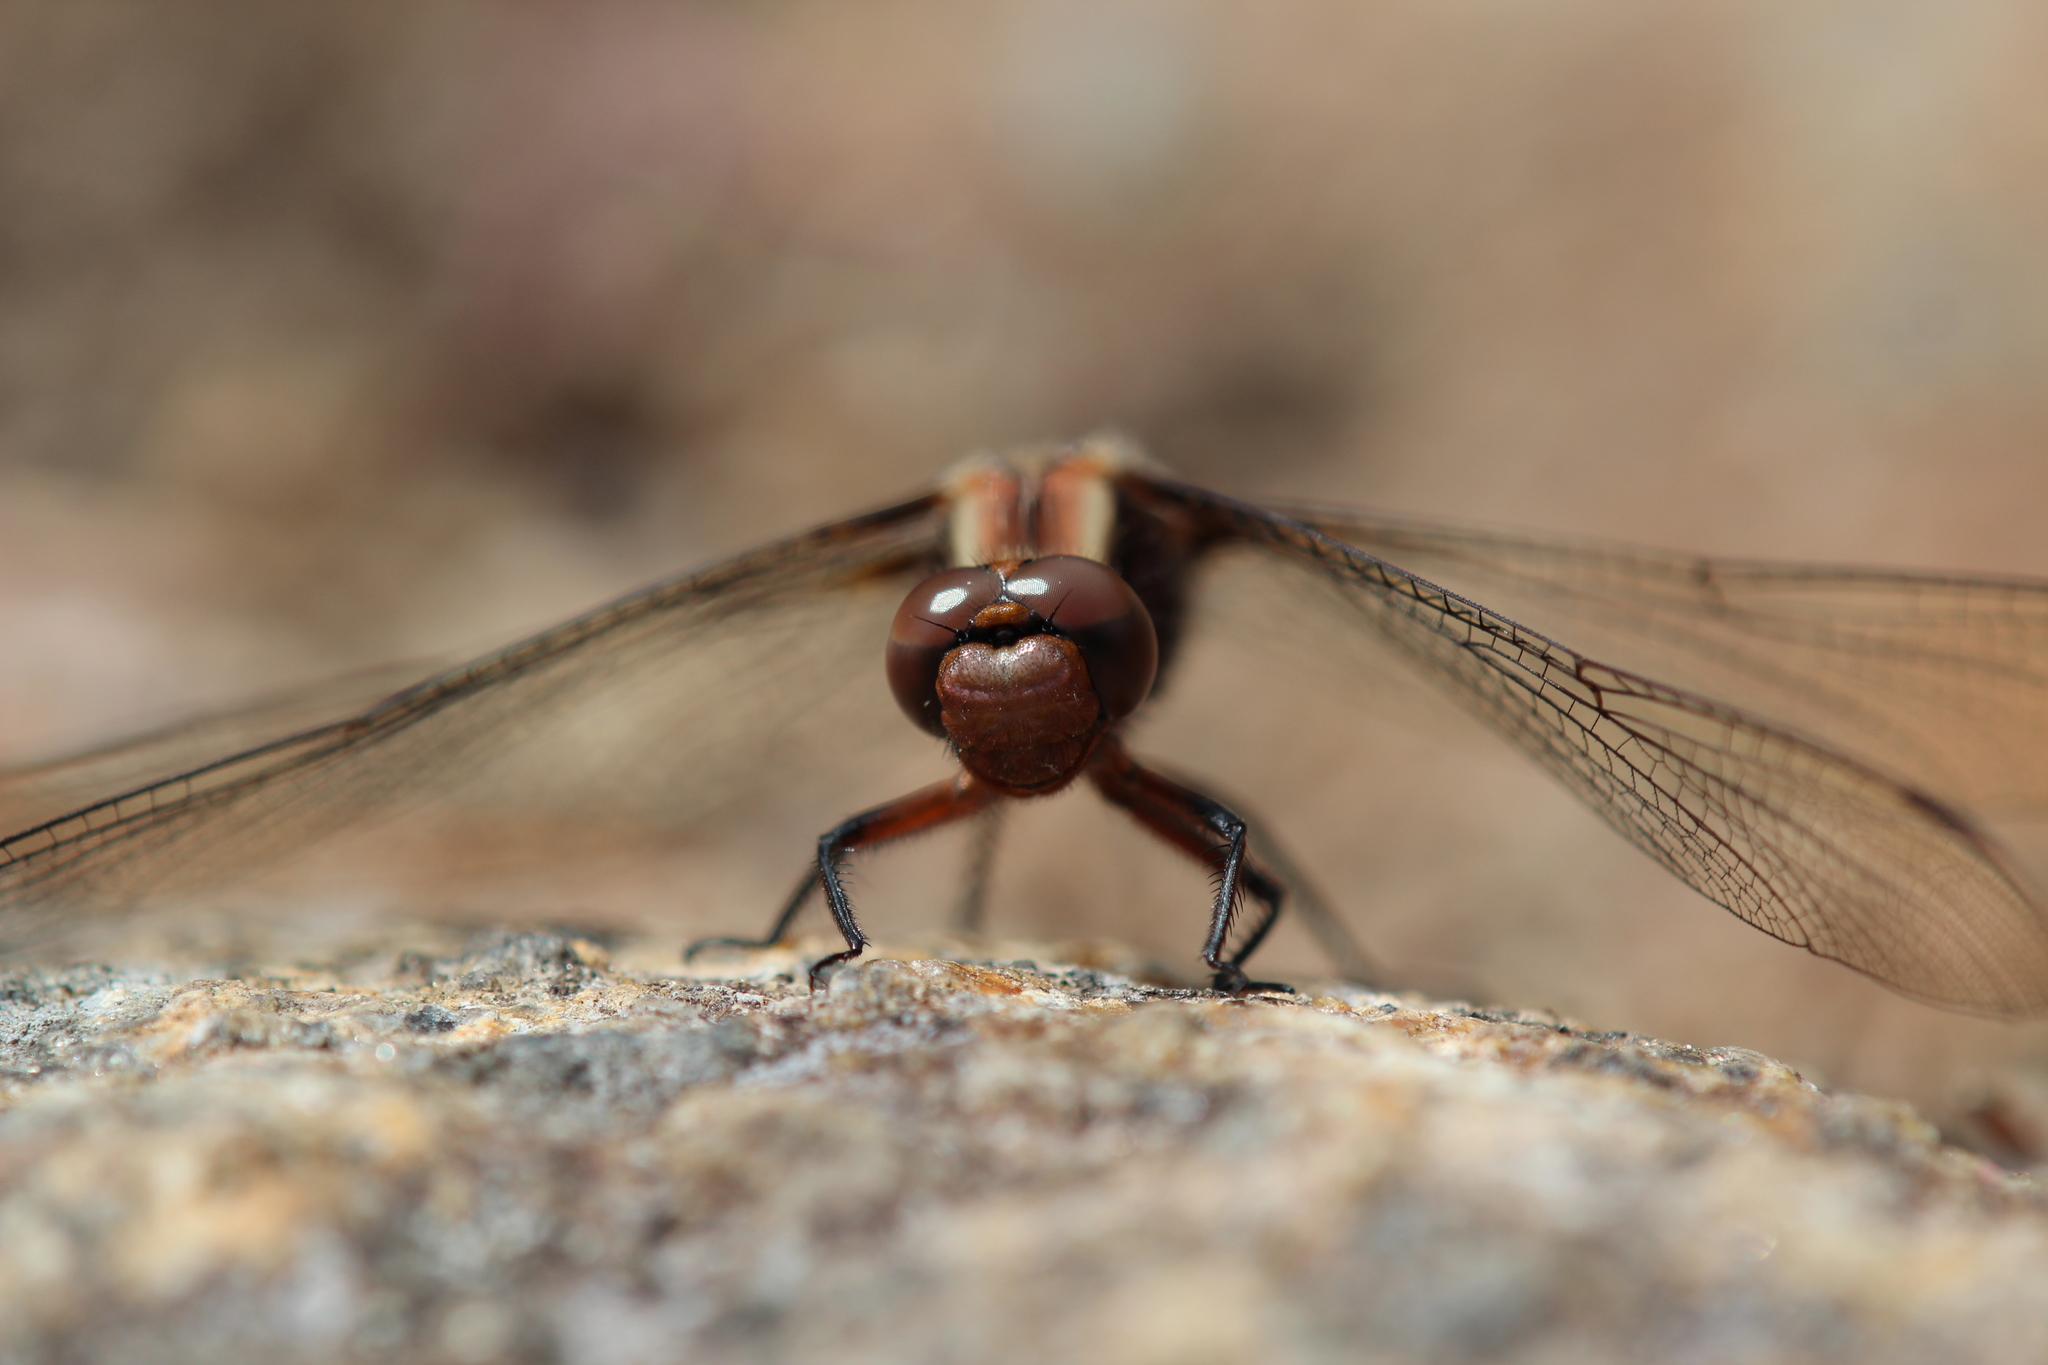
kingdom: Animalia
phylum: Arthropoda
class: Insecta
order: Odonata
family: Libellulidae
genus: Ladona
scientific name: Ladona julia
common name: Chalk-fronted corporal
